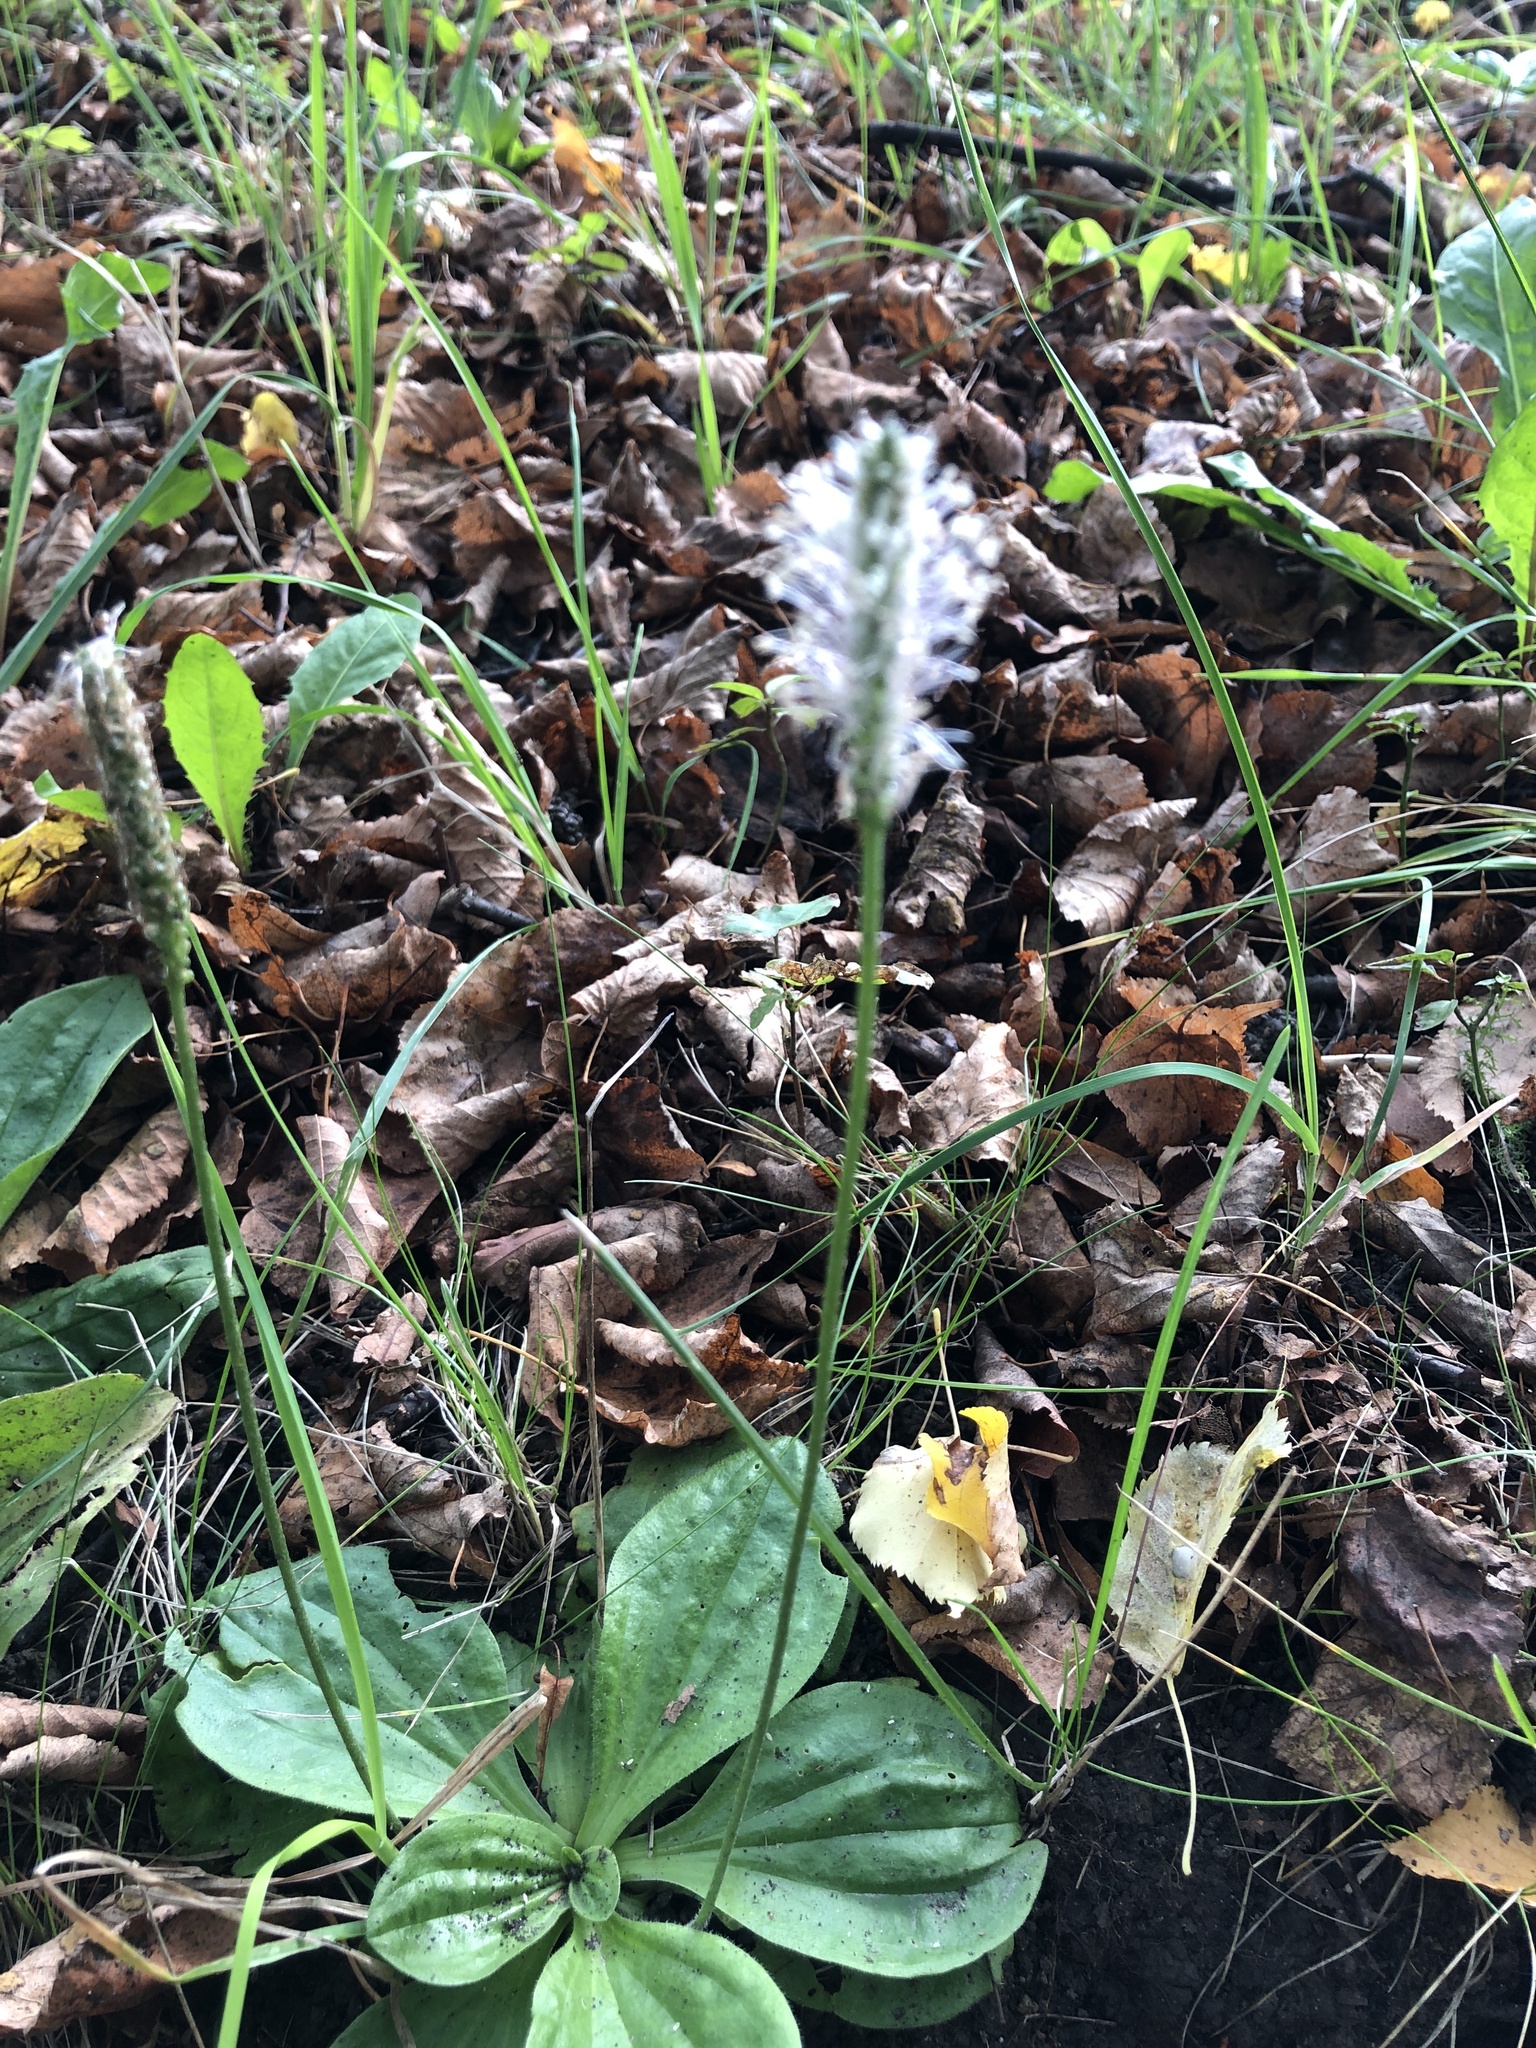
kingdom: Plantae
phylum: Tracheophyta
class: Magnoliopsida
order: Lamiales
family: Plantaginaceae
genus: Plantago
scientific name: Plantago media
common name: Hoary plantain
